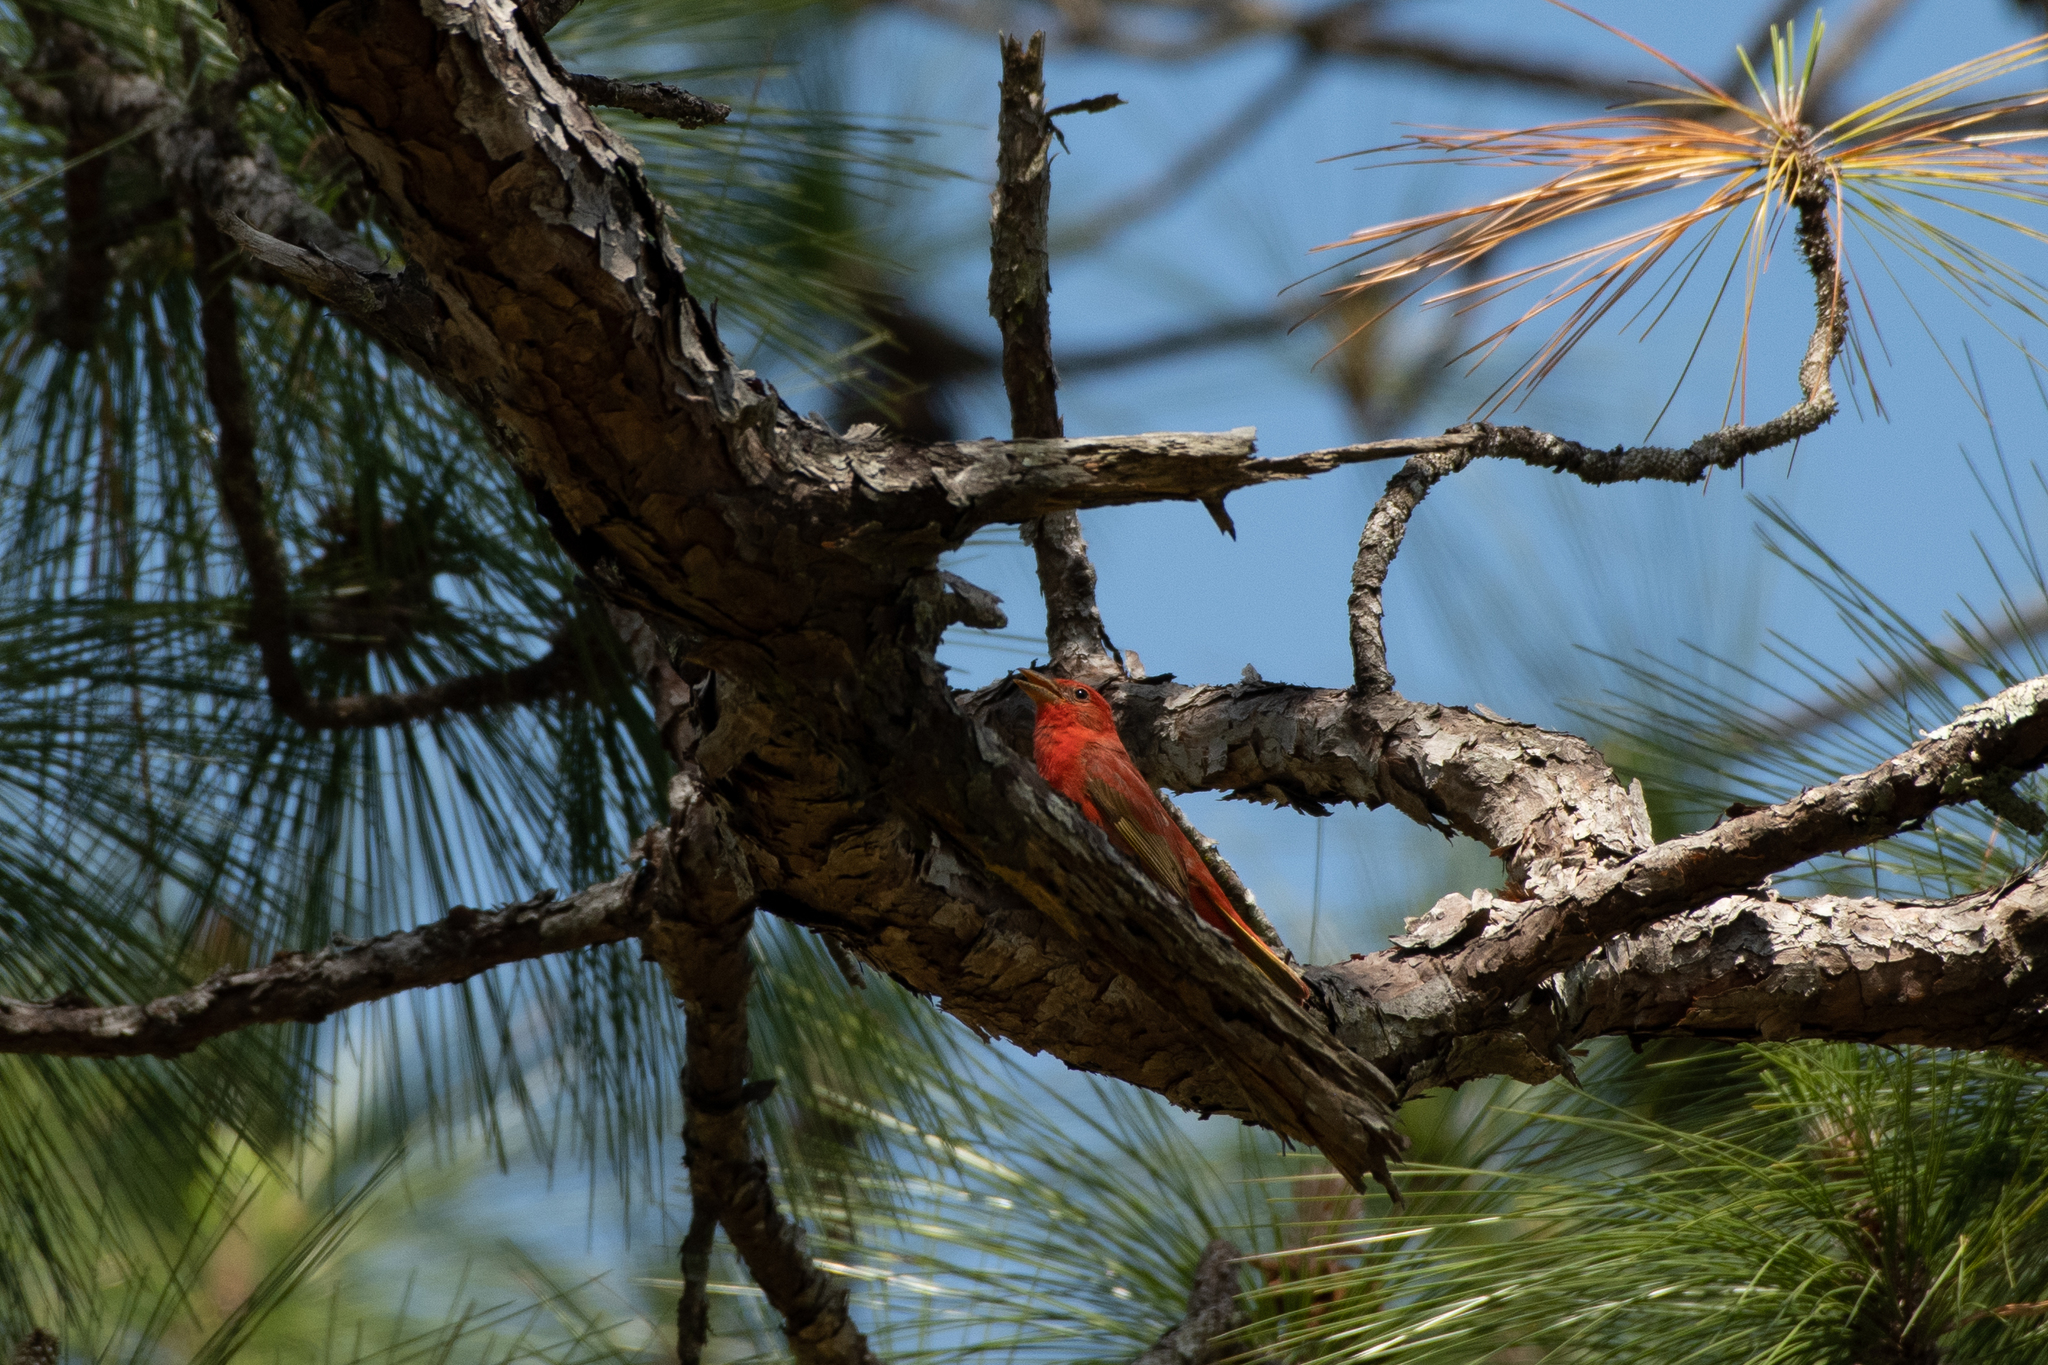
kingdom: Animalia
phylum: Chordata
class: Aves
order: Passeriformes
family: Cardinalidae
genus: Piranga
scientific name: Piranga rubra
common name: Summer tanager
